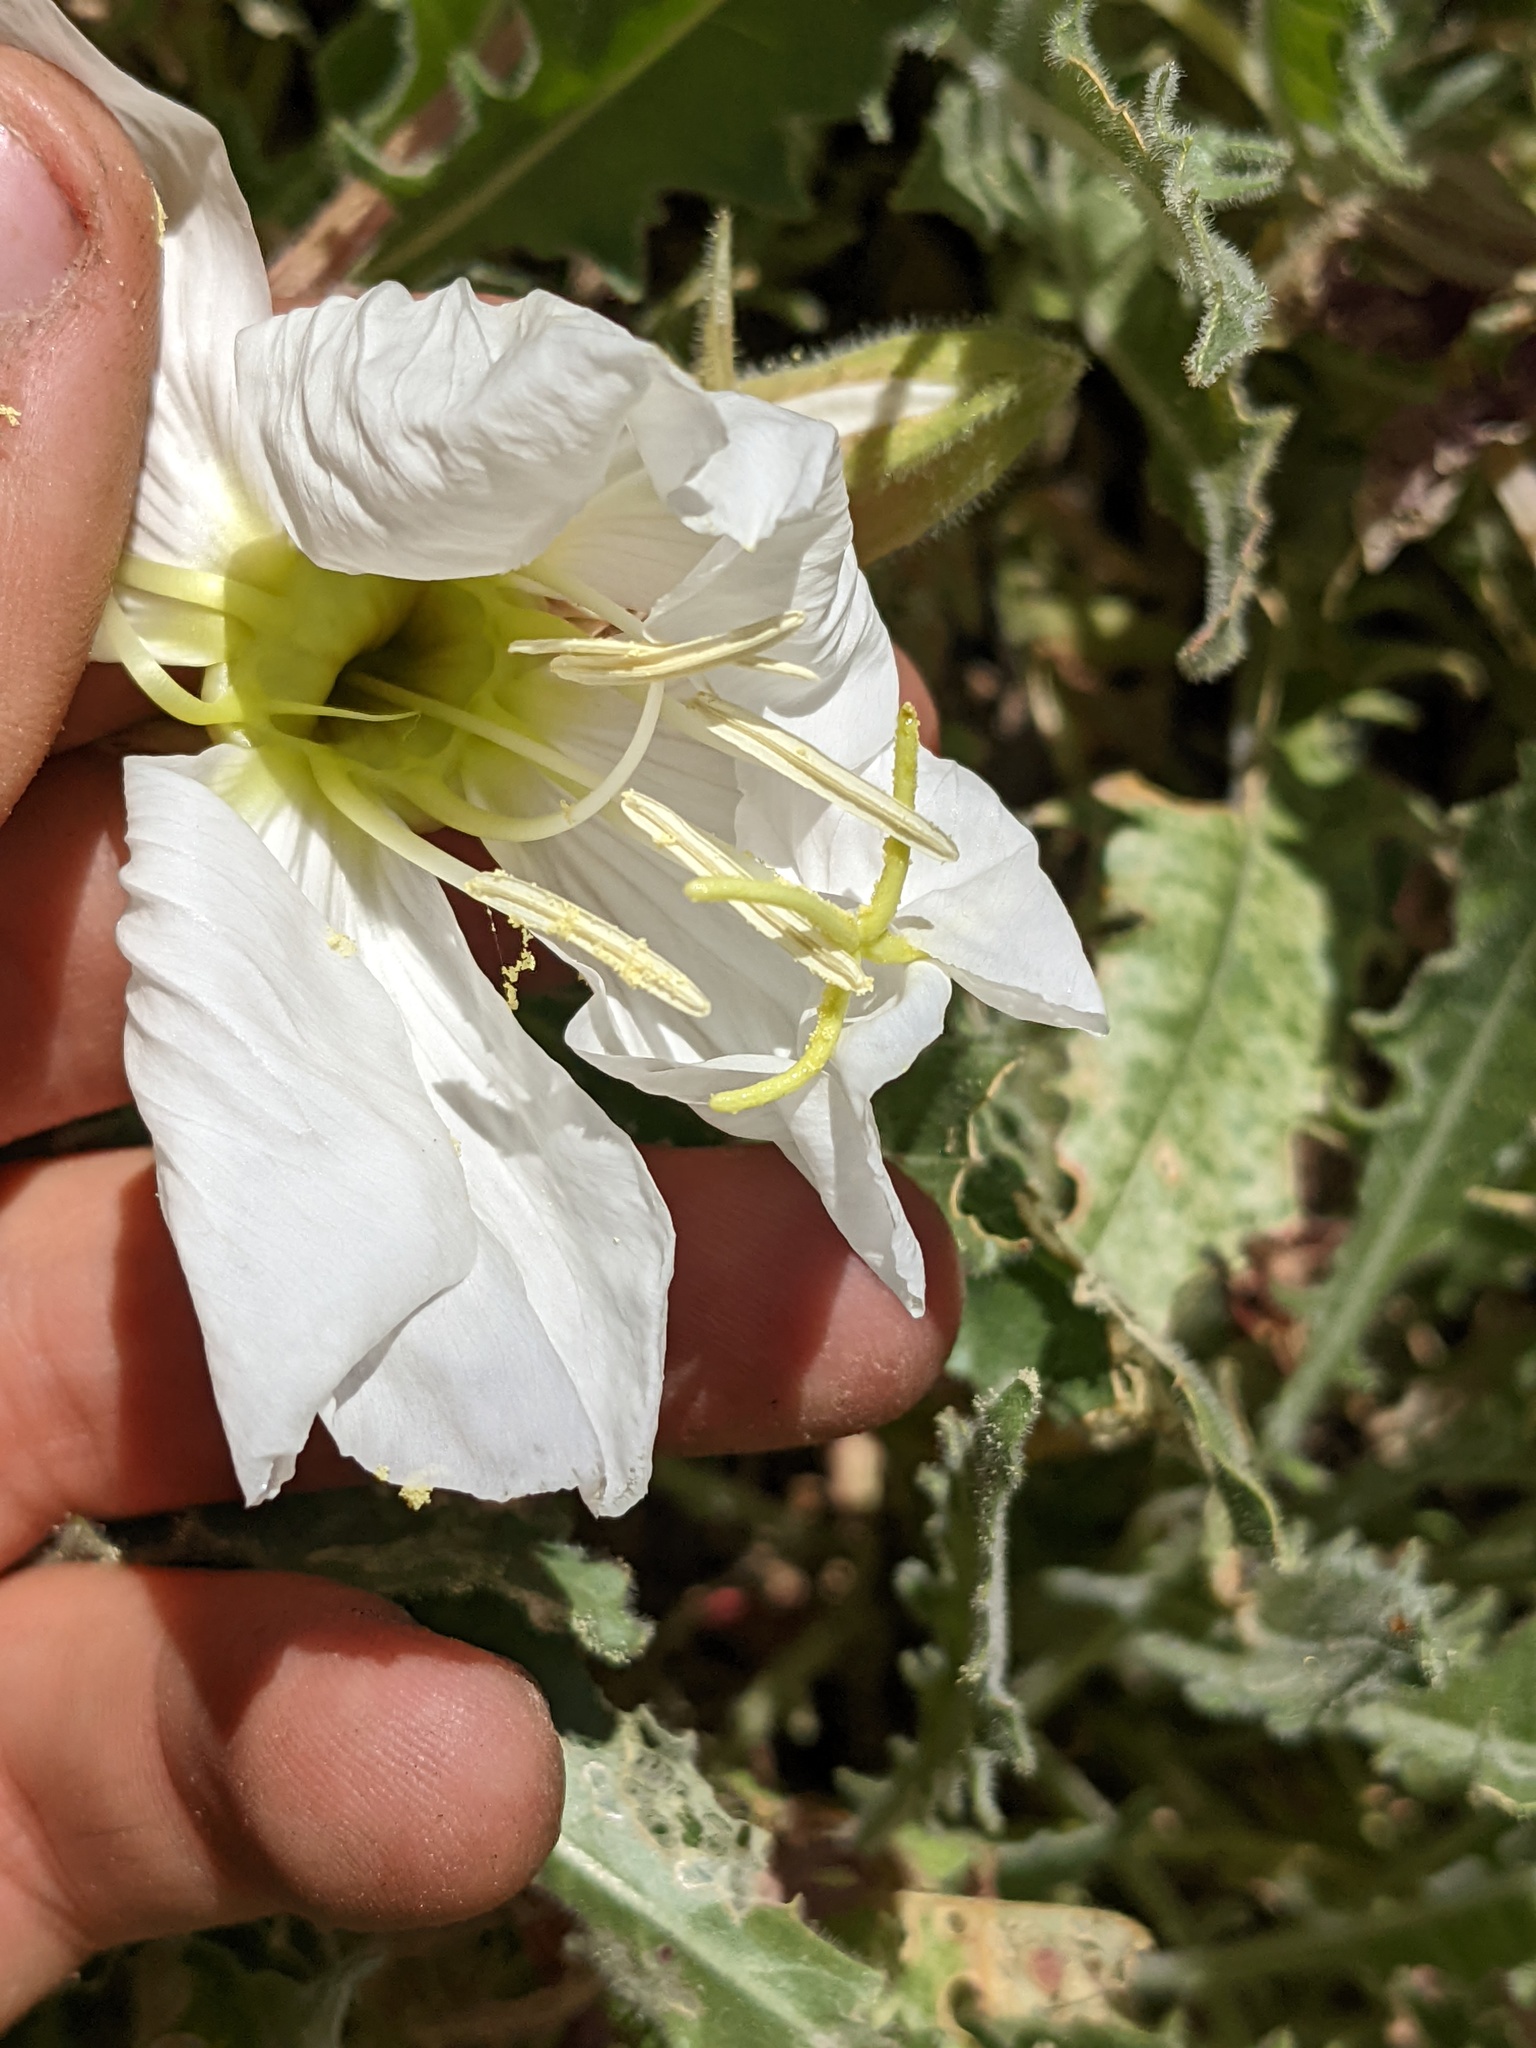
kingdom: Plantae
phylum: Tracheophyta
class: Magnoliopsida
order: Myrtales
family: Onagraceae
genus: Oenothera
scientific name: Oenothera cespitosa
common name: Tufted evening-primrose
